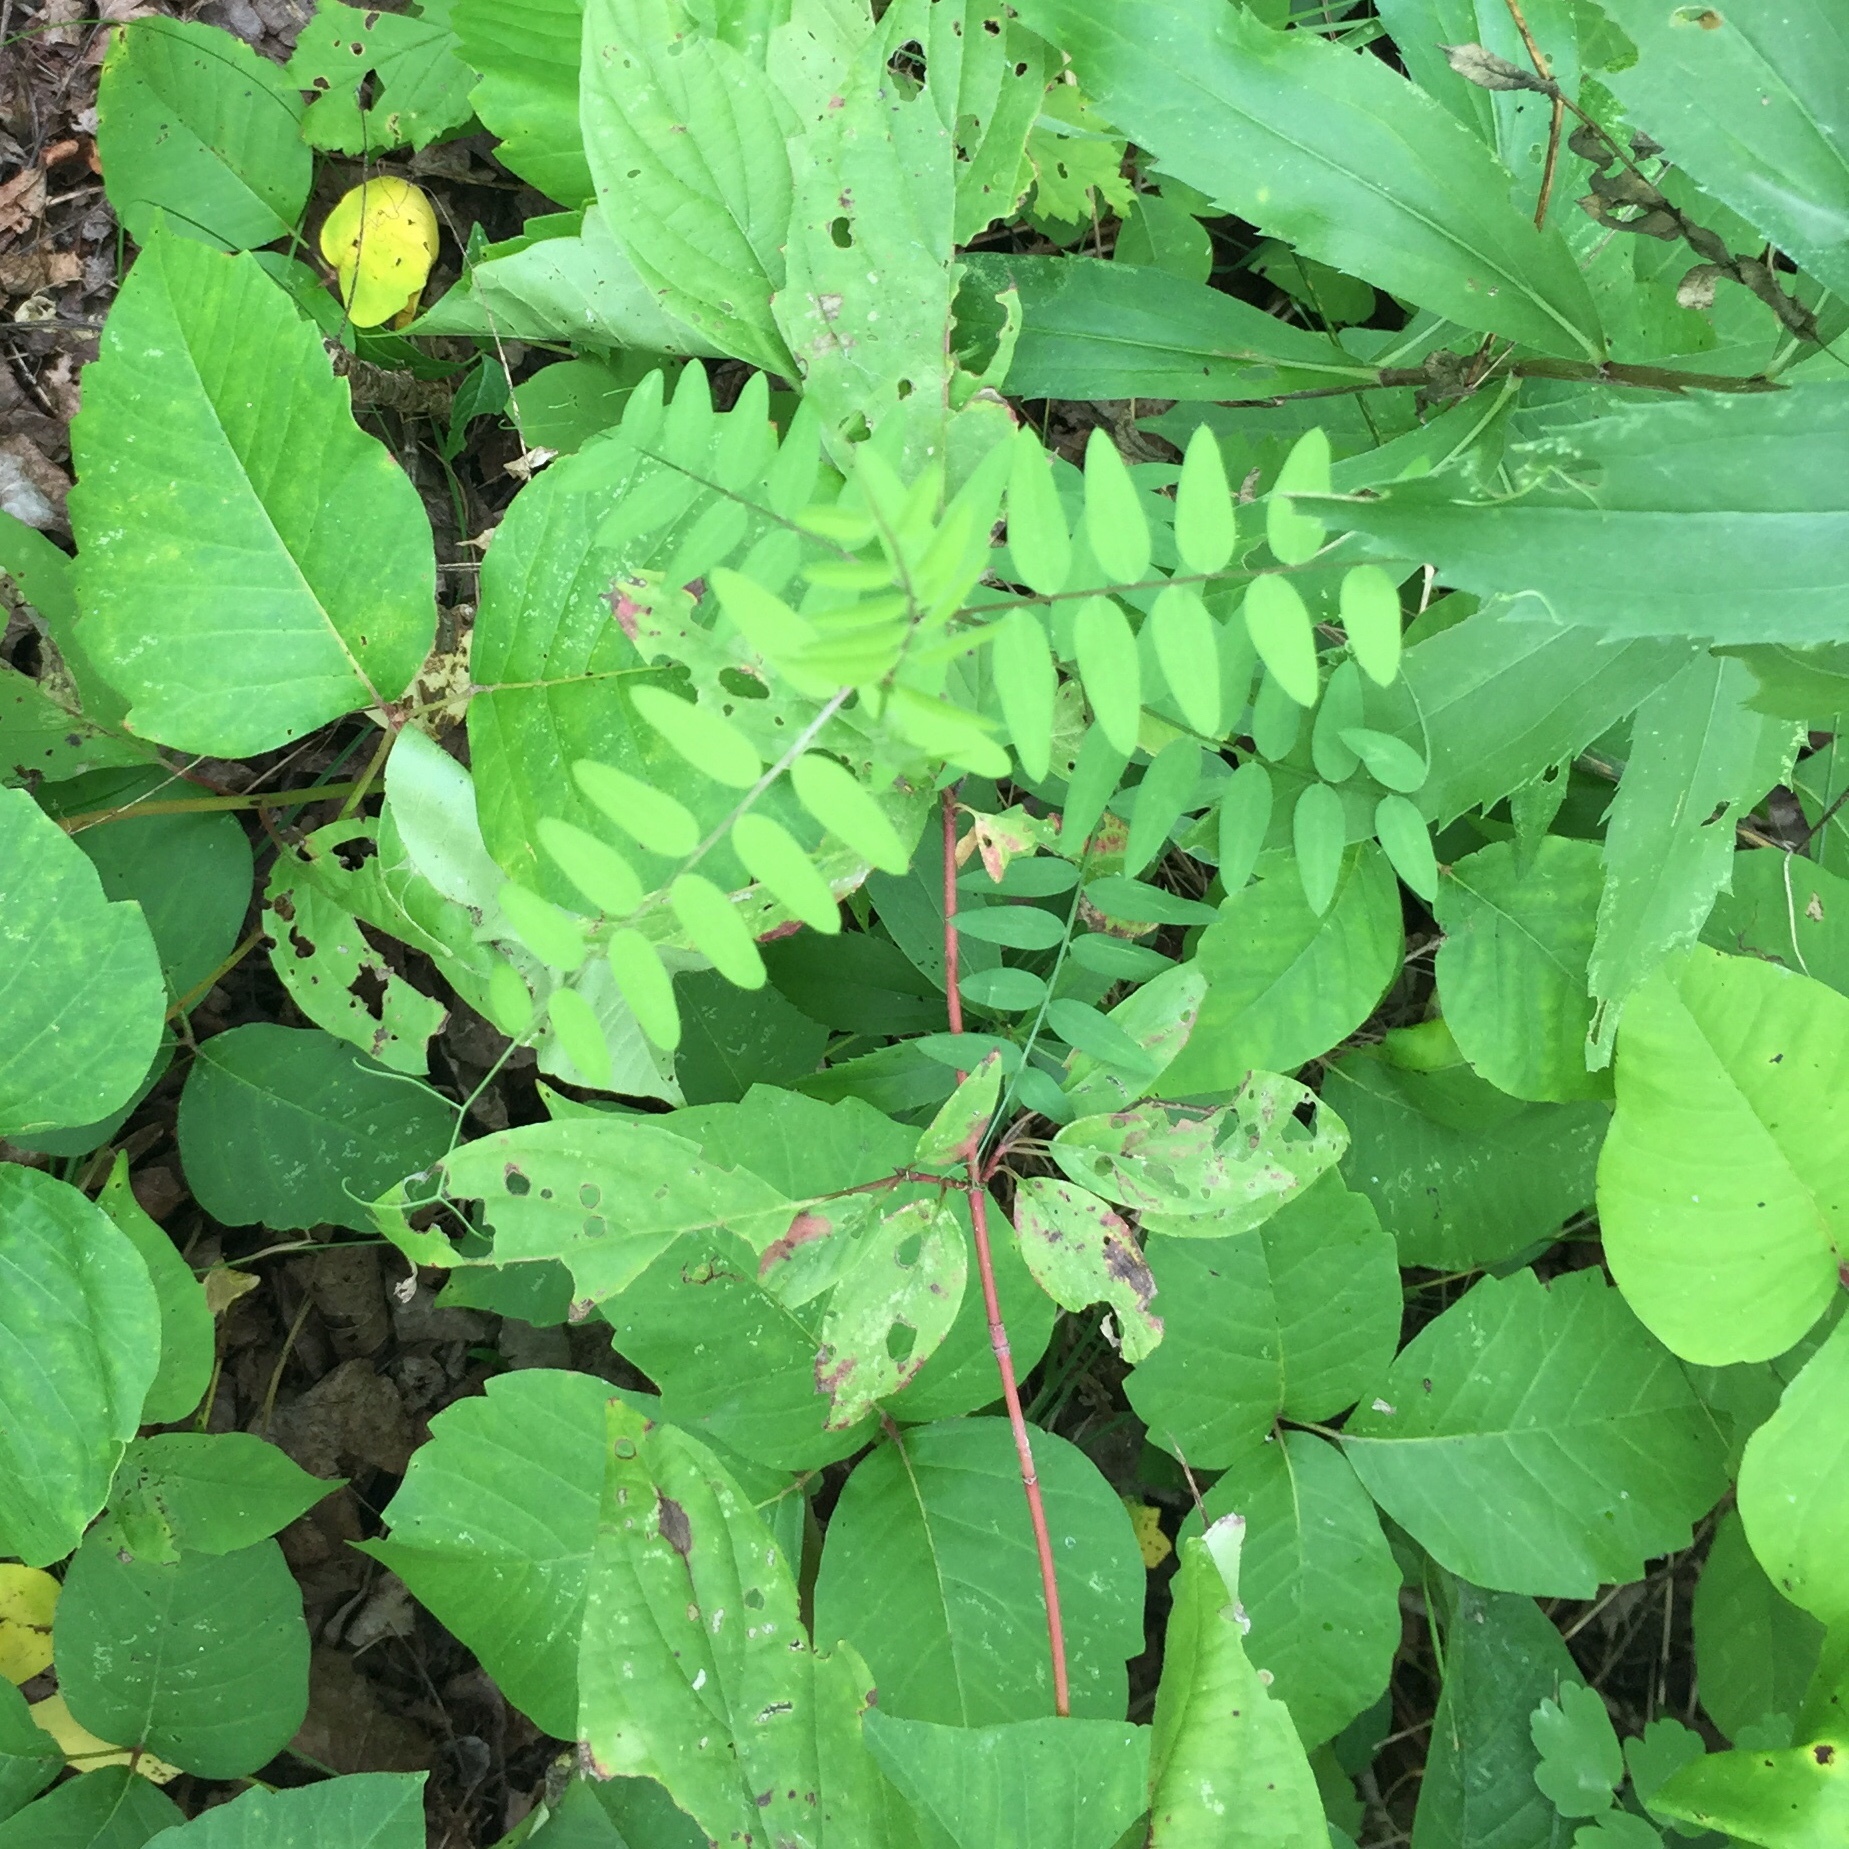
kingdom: Plantae
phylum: Tracheophyta
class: Magnoliopsida
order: Fabales
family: Fabaceae
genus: Vicia
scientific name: Vicia americana
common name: American vetch
